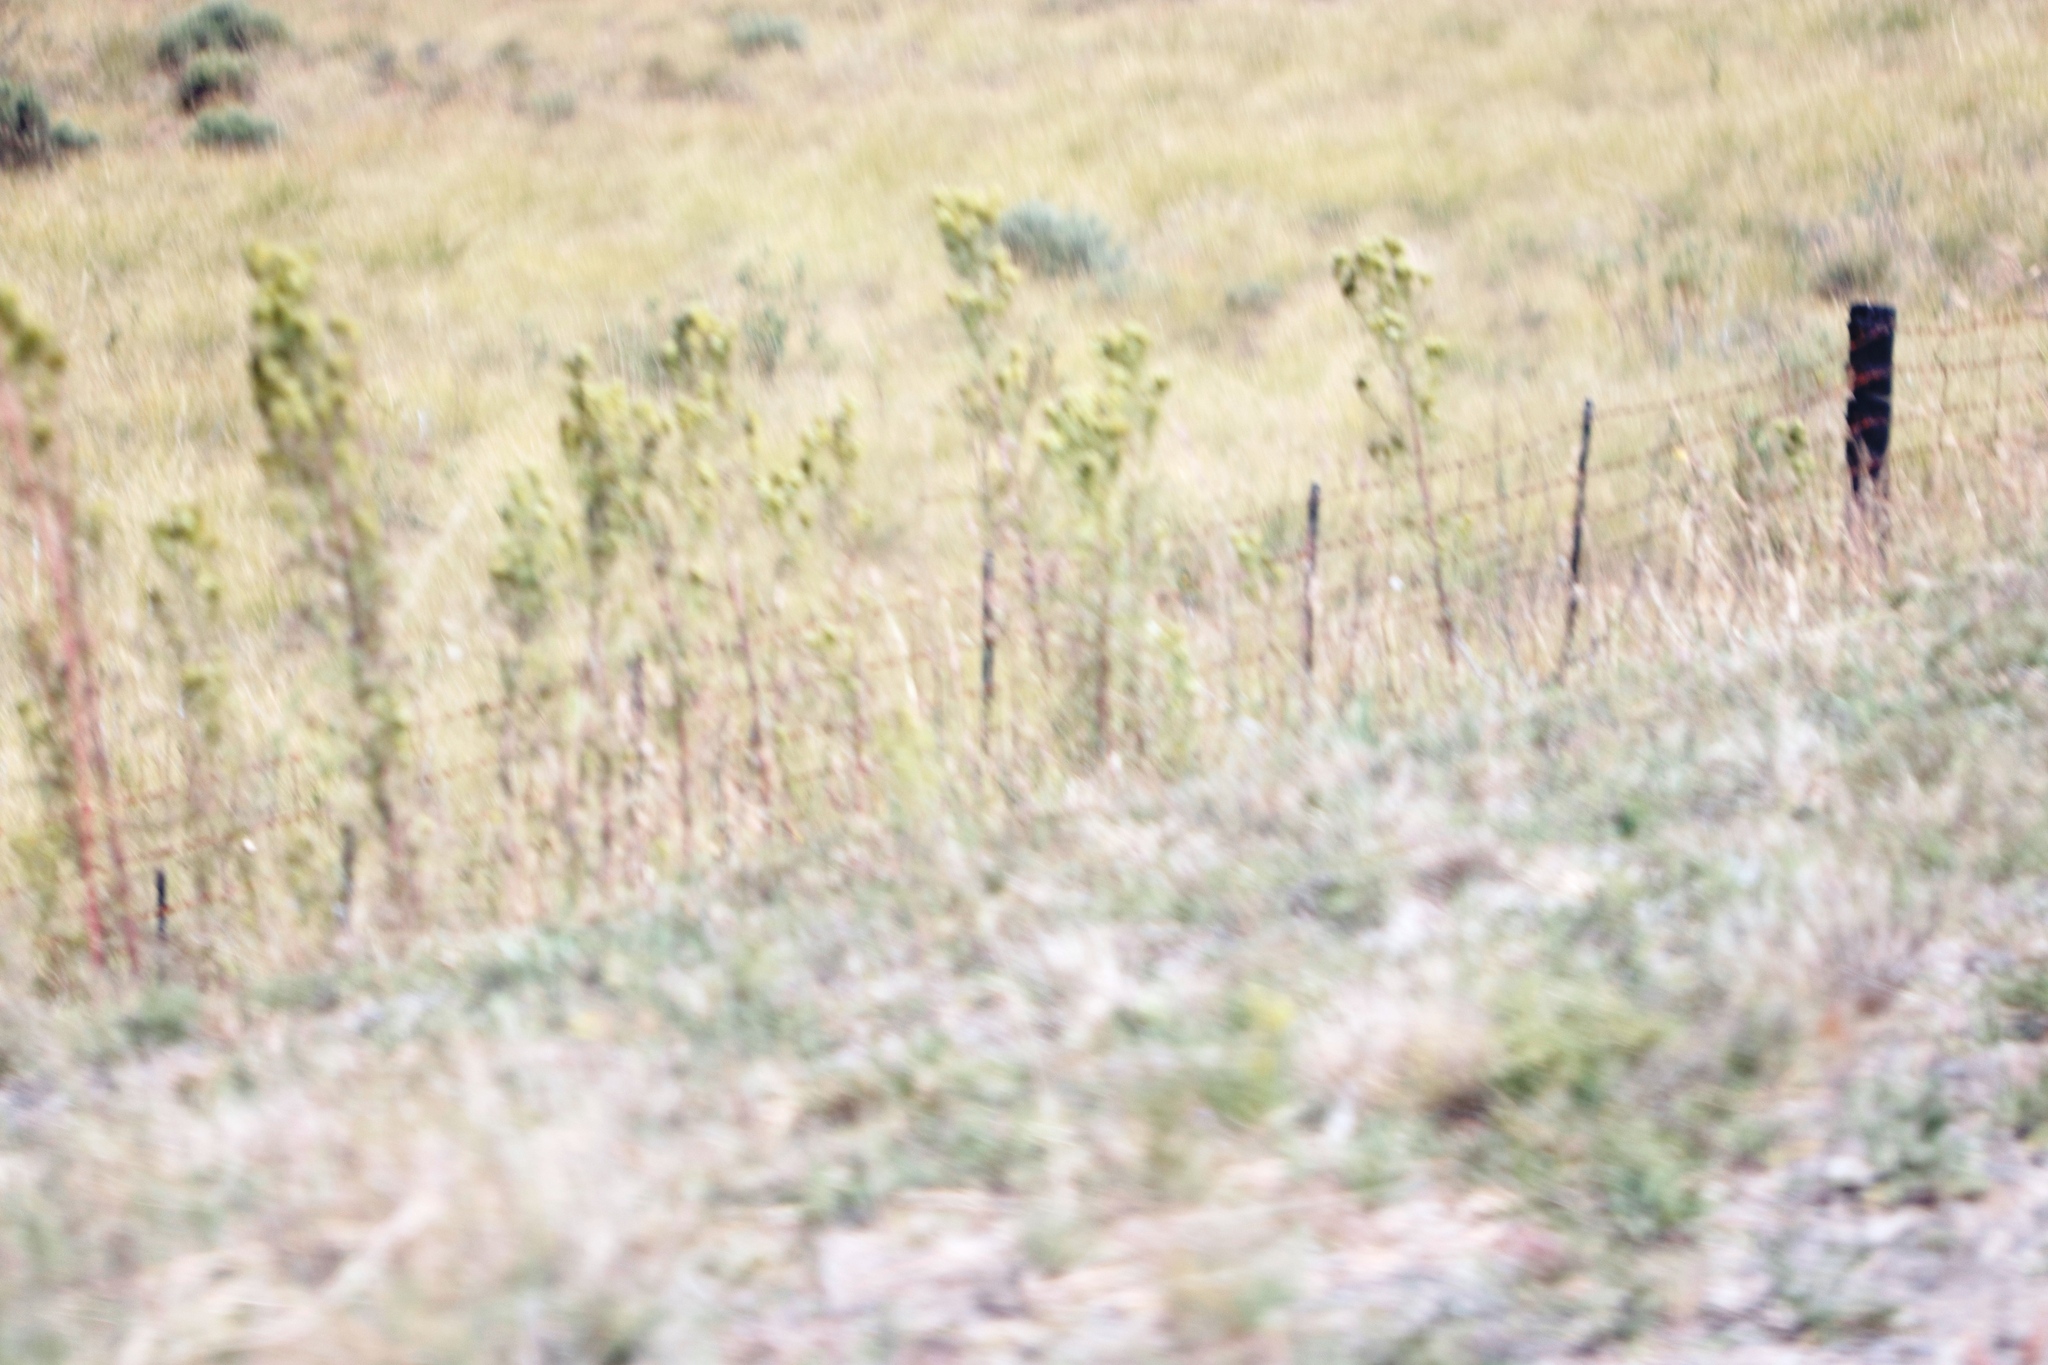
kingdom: Plantae
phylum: Tracheophyta
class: Magnoliopsida
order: Asterales
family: Asteraceae
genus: Tagetes
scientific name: Tagetes minuta
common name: Muster john henry
